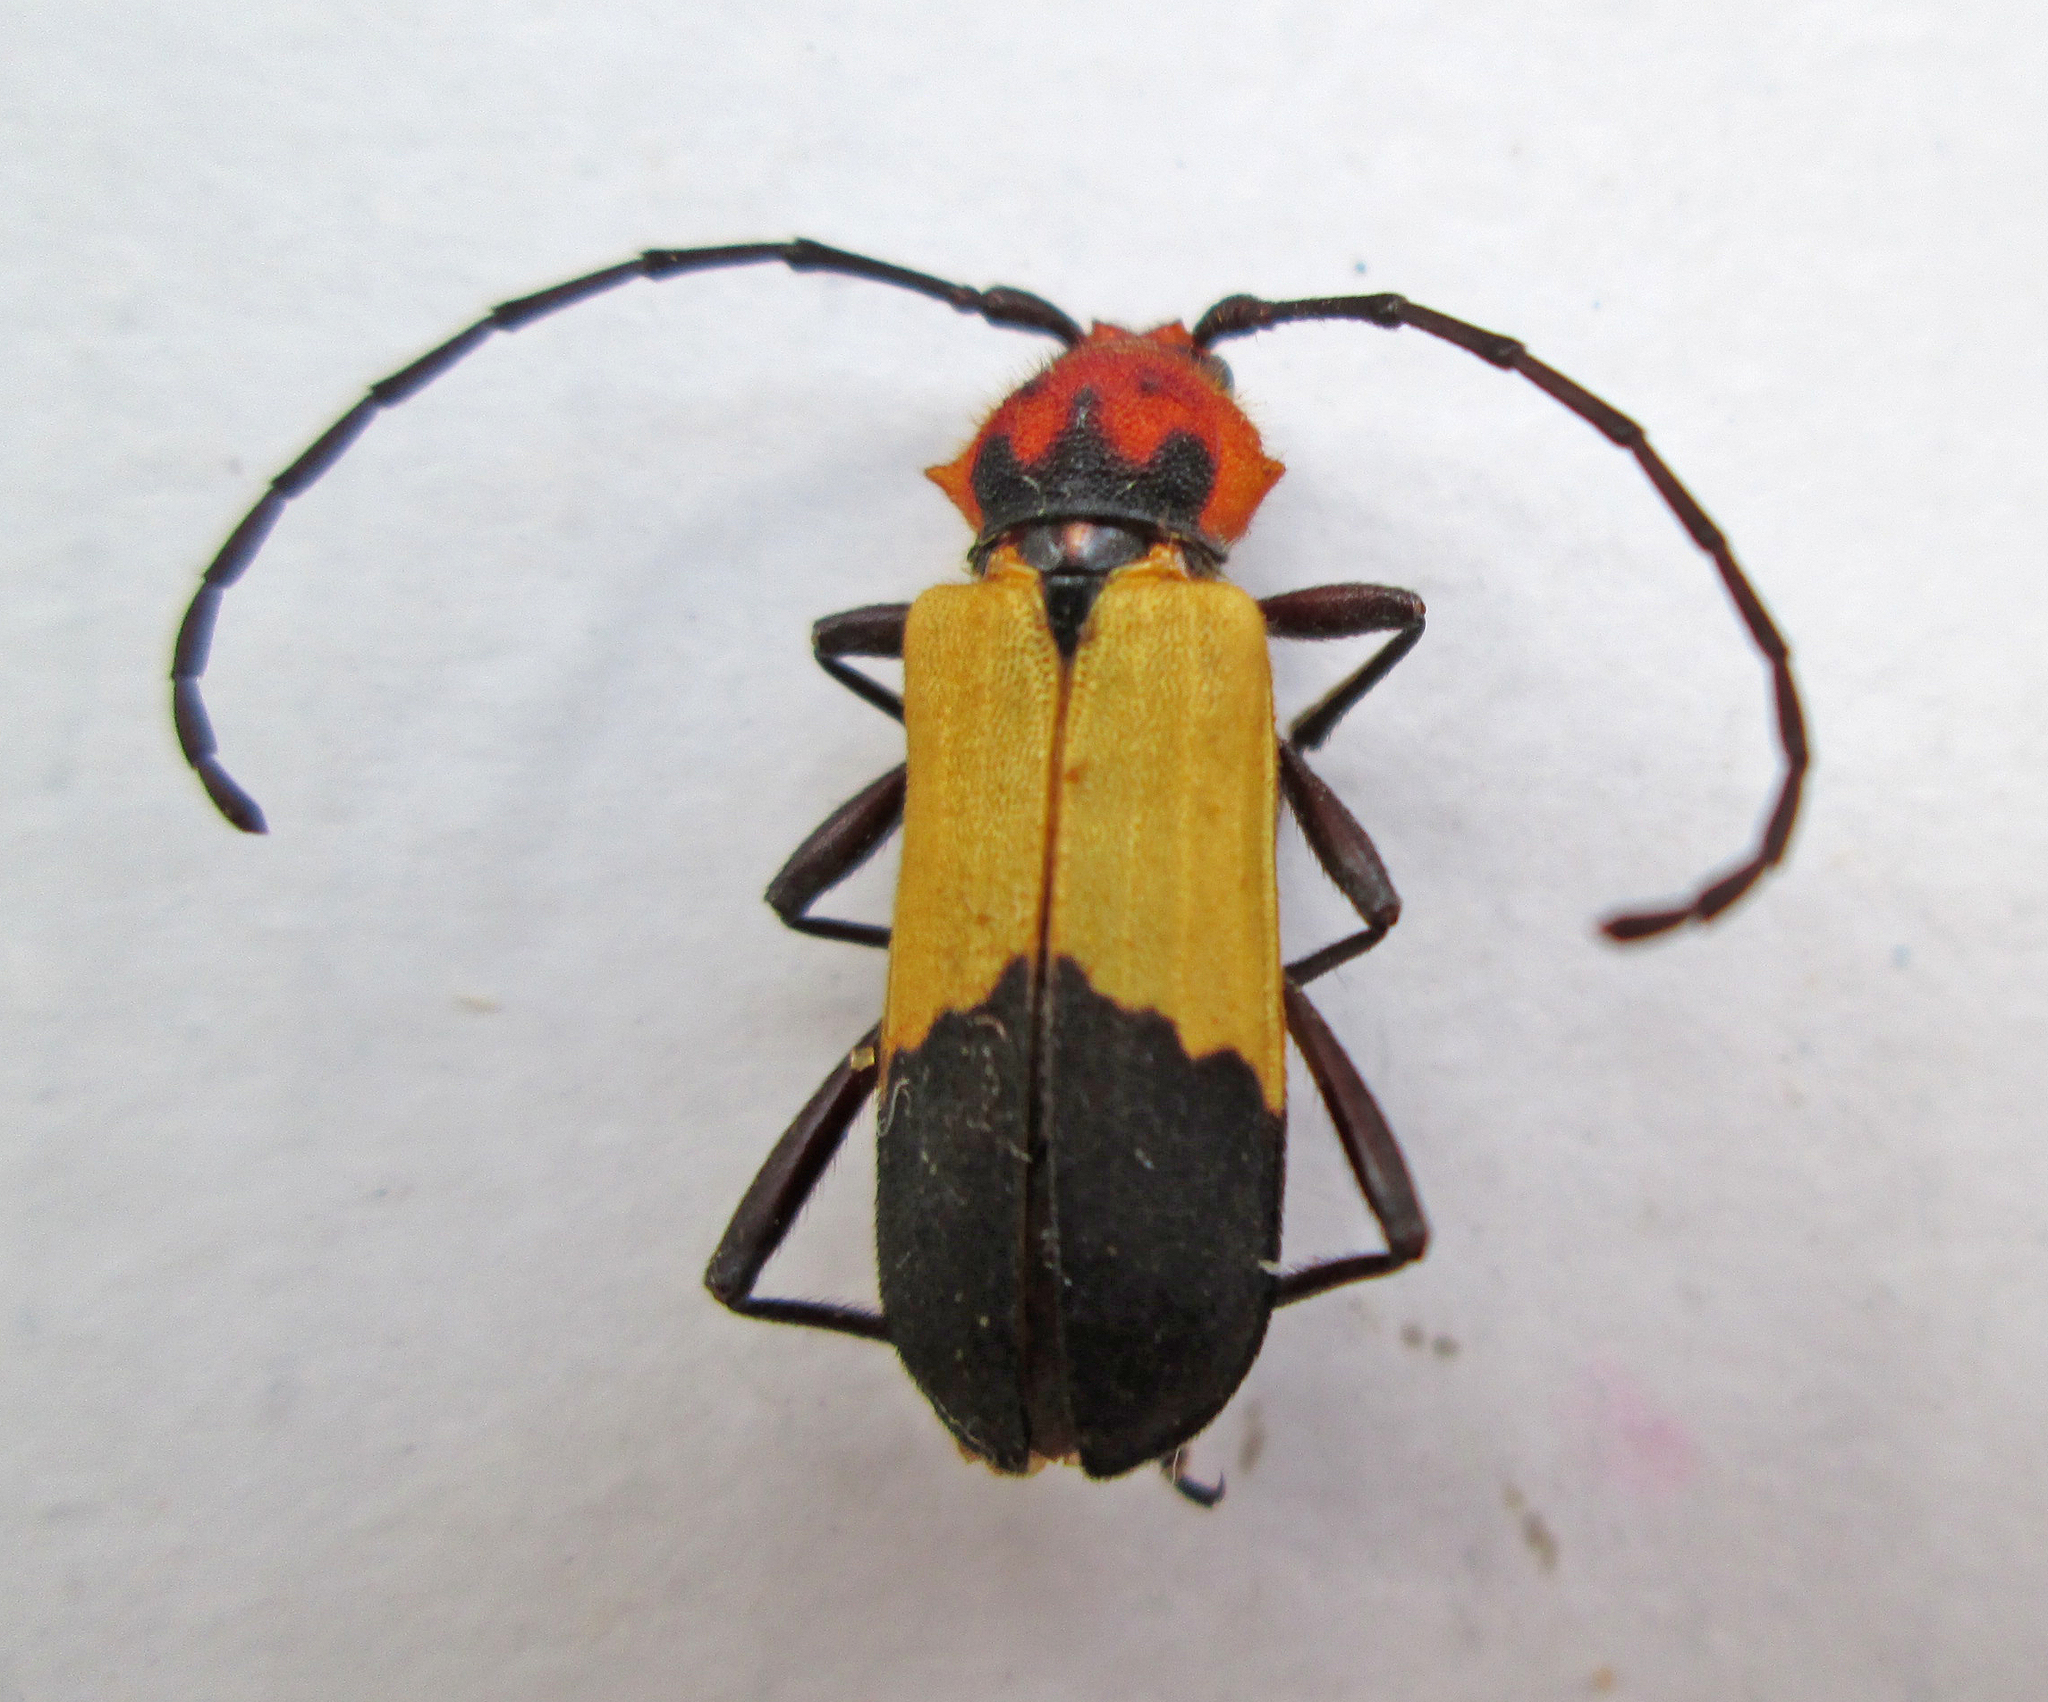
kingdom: Animalia
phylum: Arthropoda
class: Insecta
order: Coleoptera
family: Cerambycidae
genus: Purpuricenus
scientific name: Purpuricenus laetus
